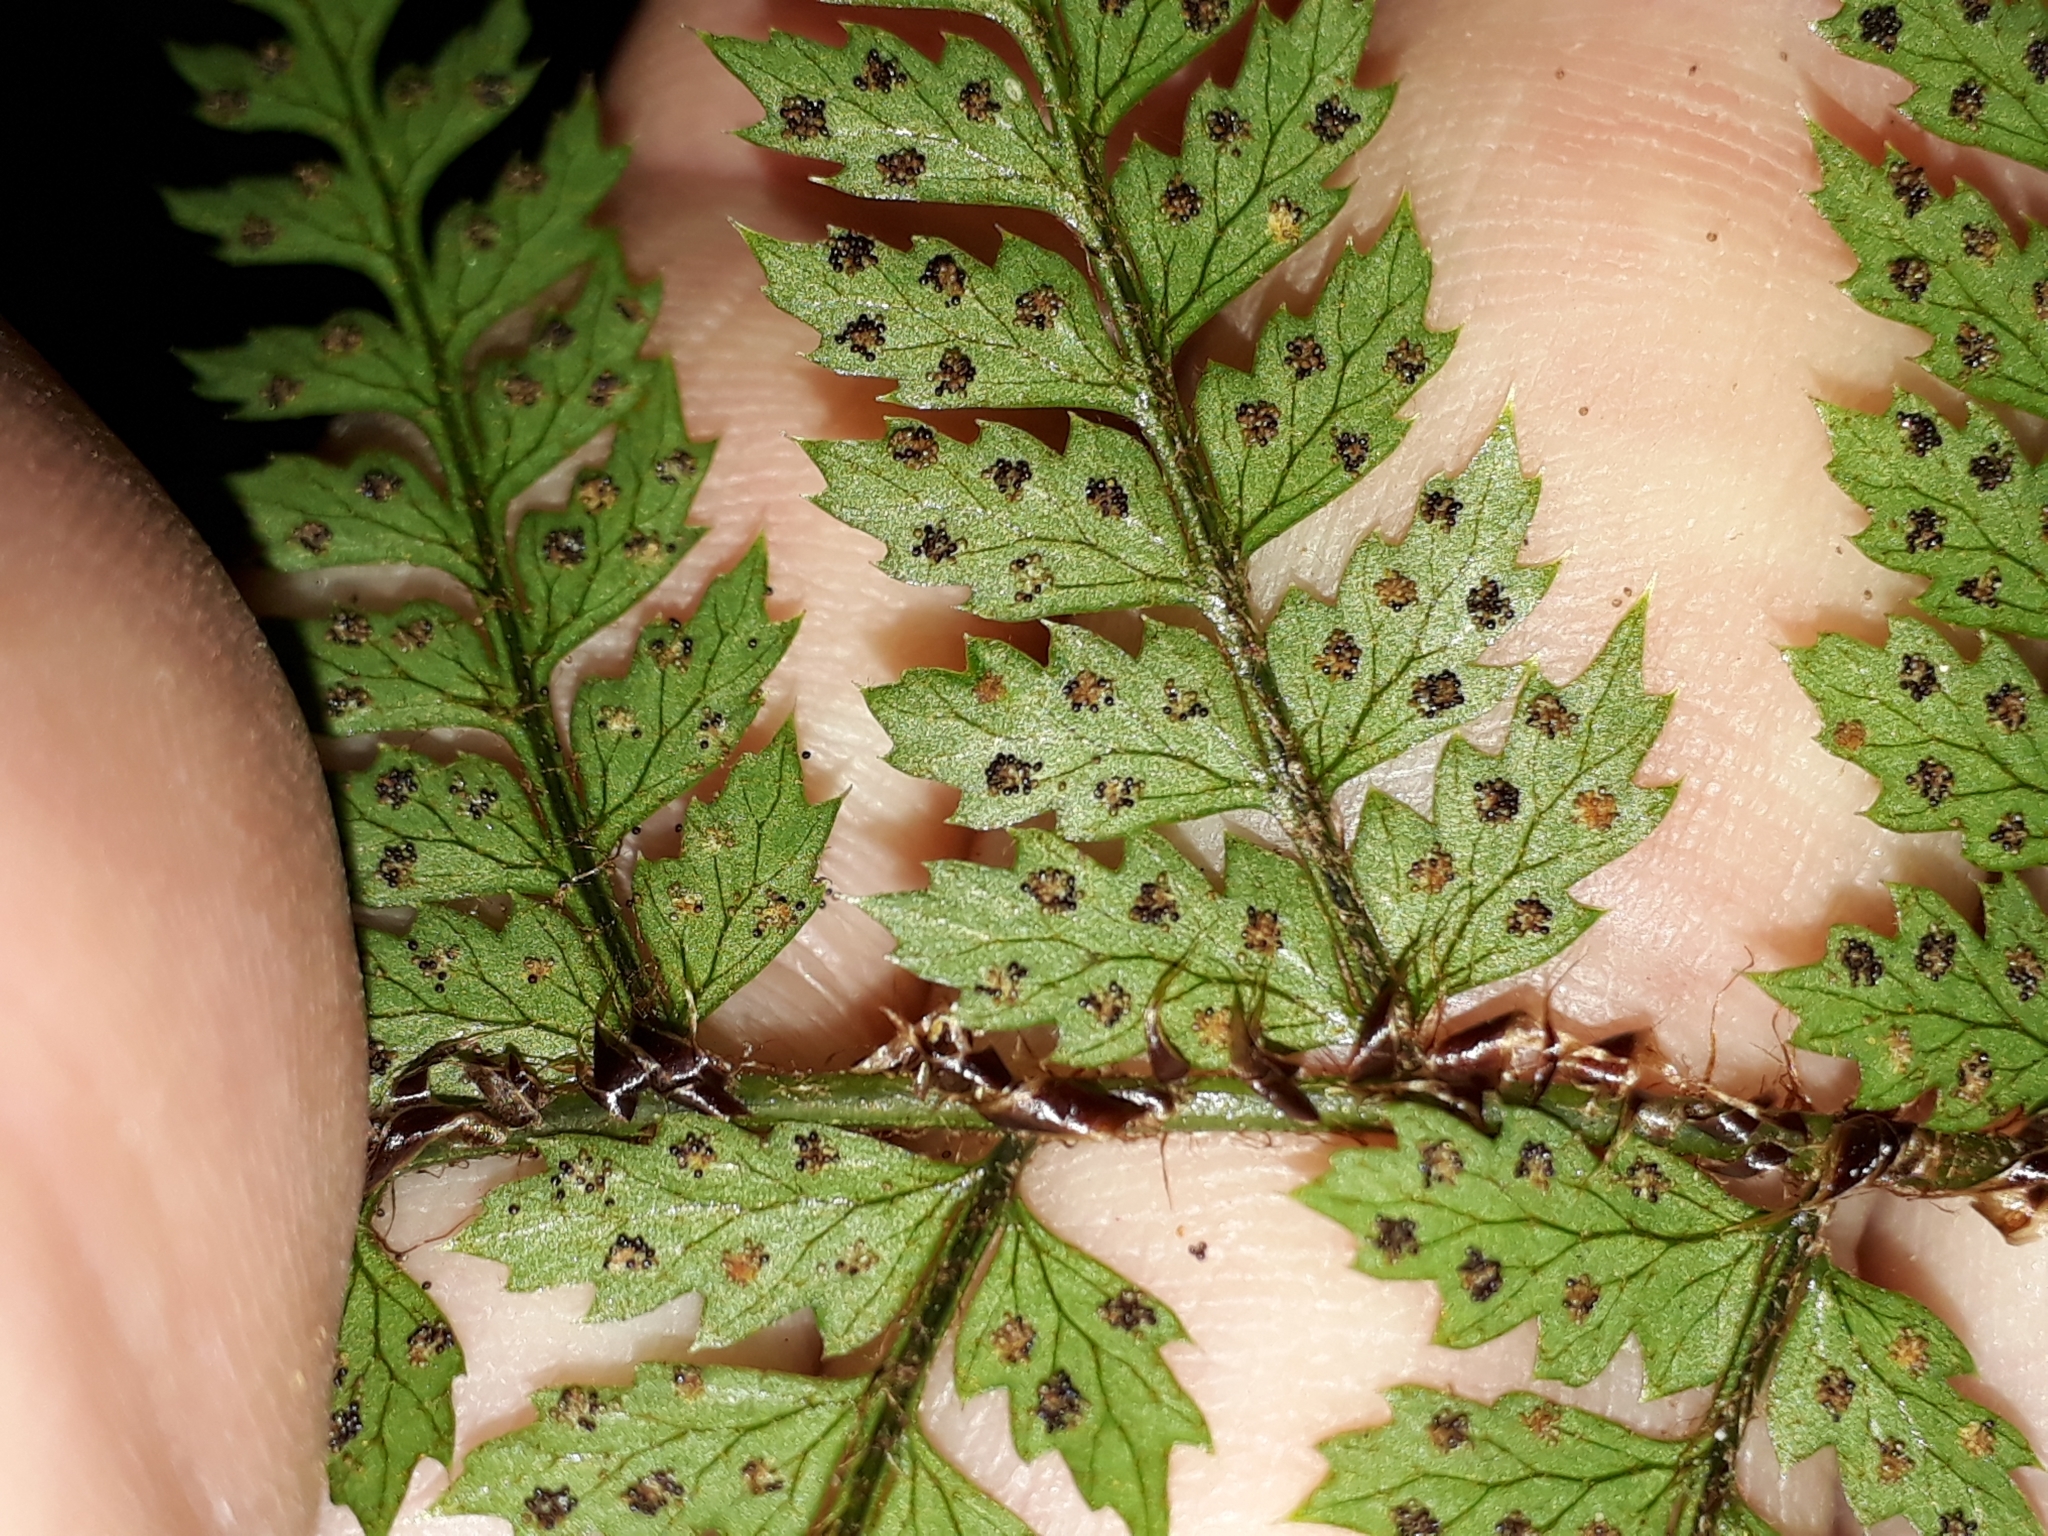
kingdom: Plantae
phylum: Tracheophyta
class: Polypodiopsida
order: Polypodiales
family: Dryopteridaceae
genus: Polystichum
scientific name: Polystichum silvaticum
